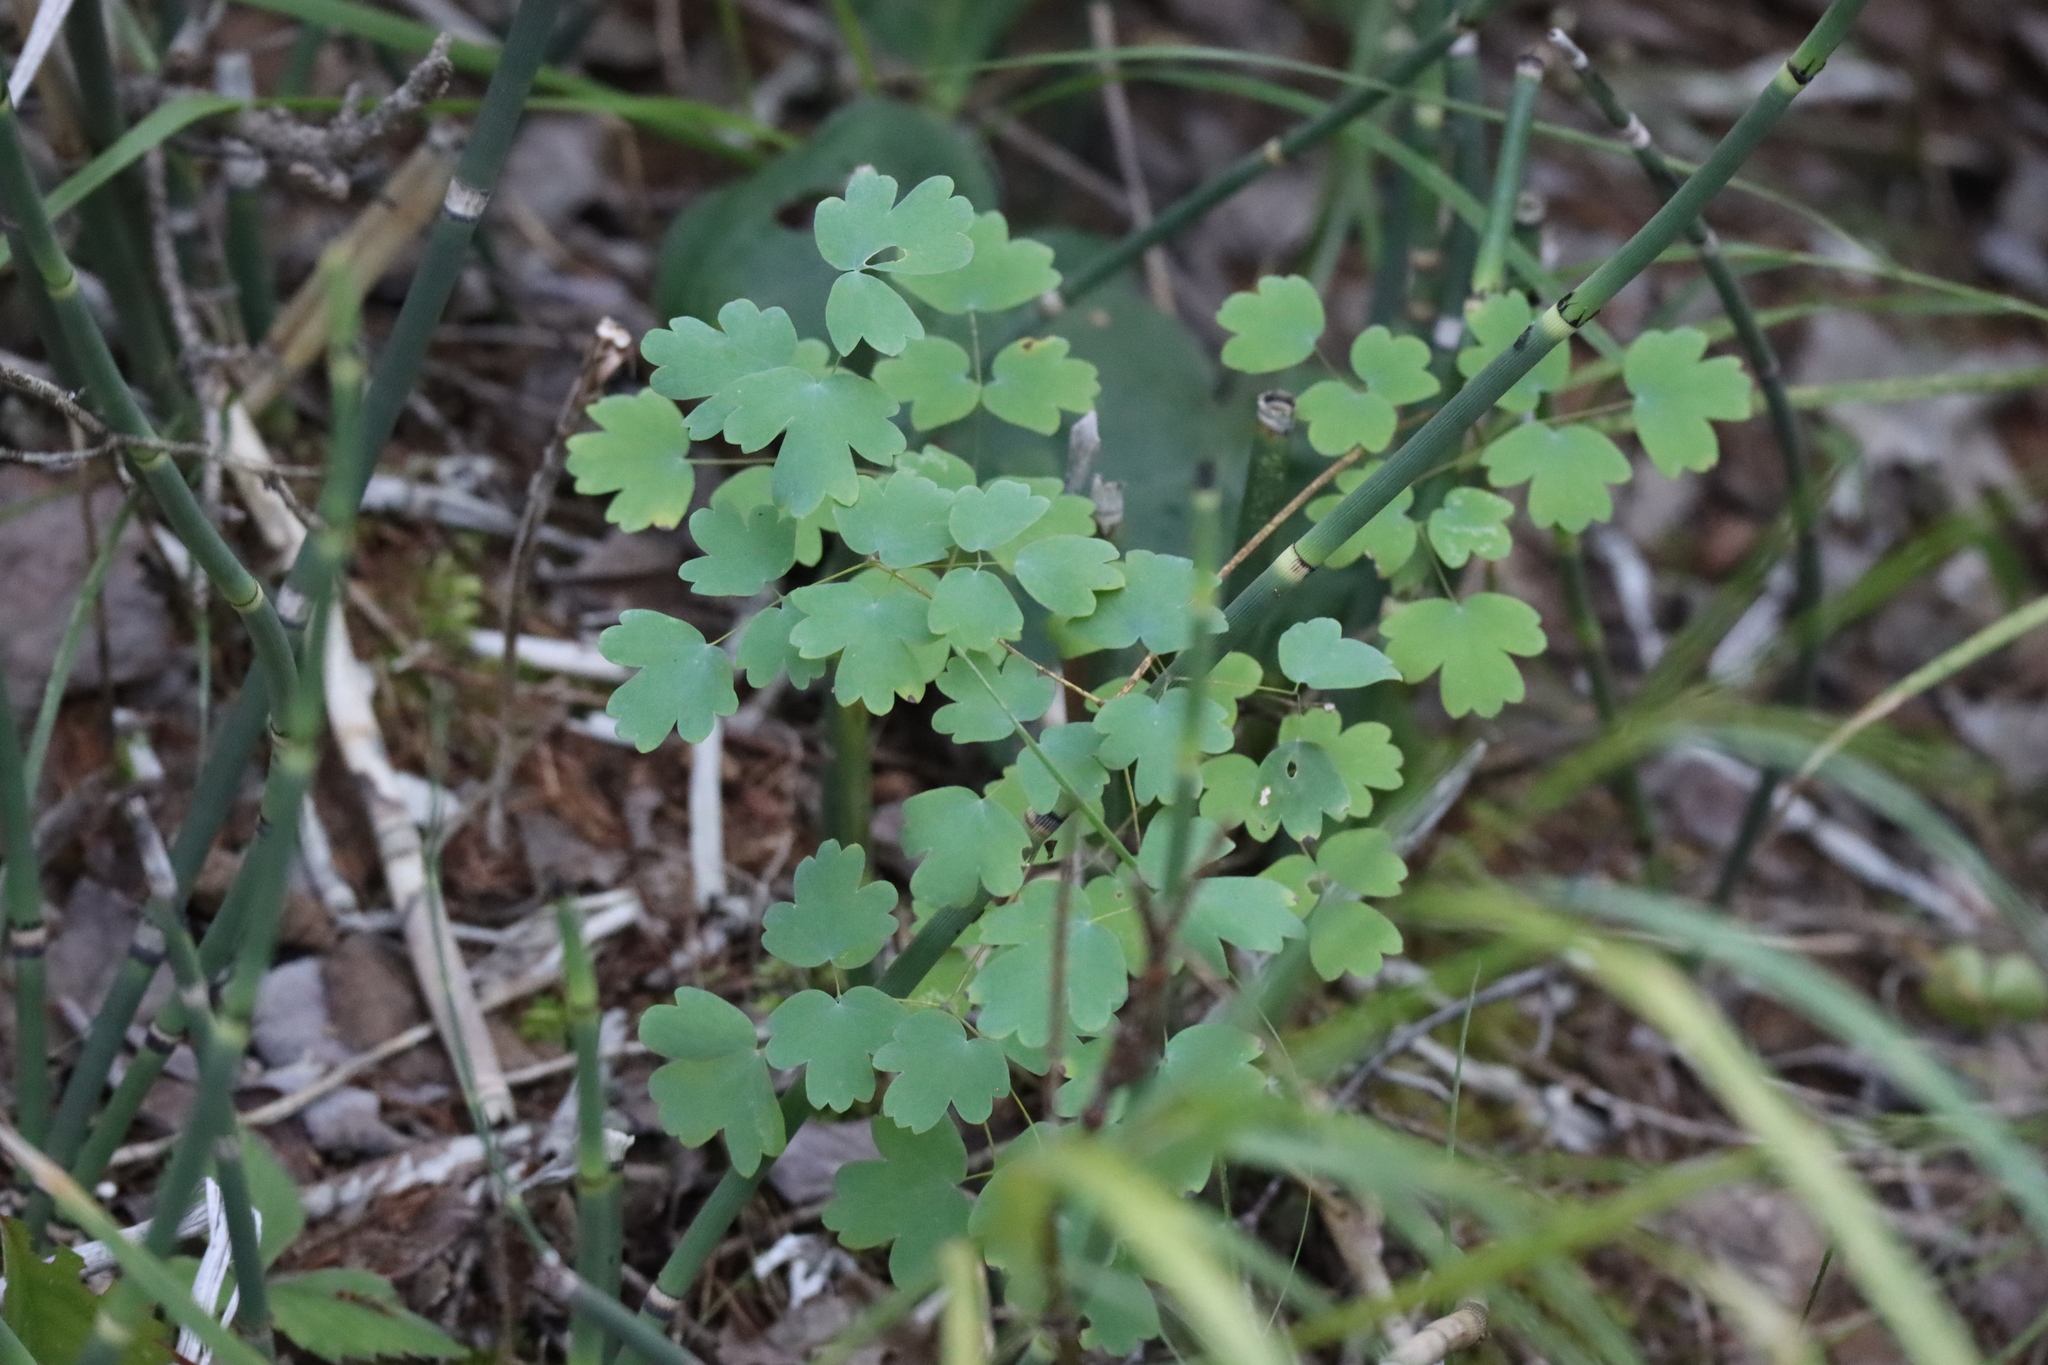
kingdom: Plantae
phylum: Tracheophyta
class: Magnoliopsida
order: Ranunculales
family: Ranunculaceae
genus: Thalictrum
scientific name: Thalictrum venulosum
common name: Early meadow-rue
